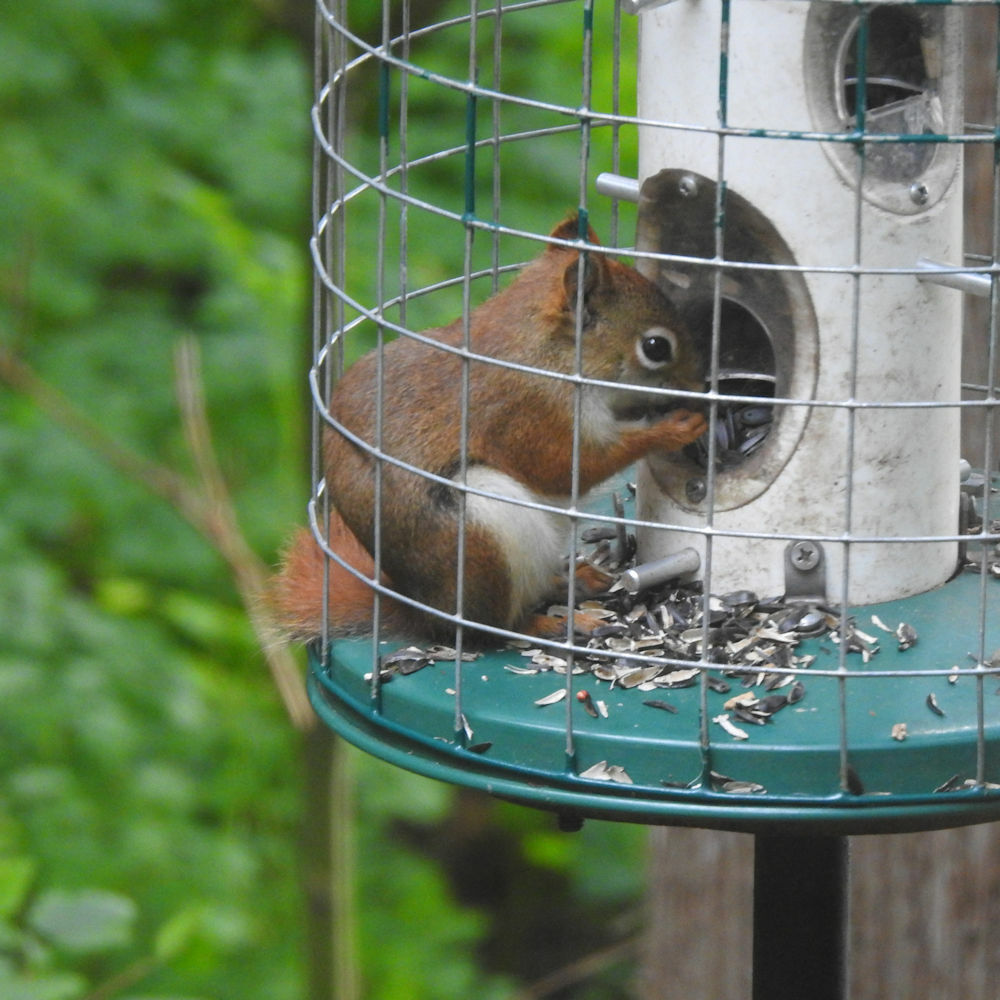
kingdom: Animalia
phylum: Chordata
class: Mammalia
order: Rodentia
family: Sciuridae
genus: Tamiasciurus
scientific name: Tamiasciurus hudsonicus
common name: Red squirrel
